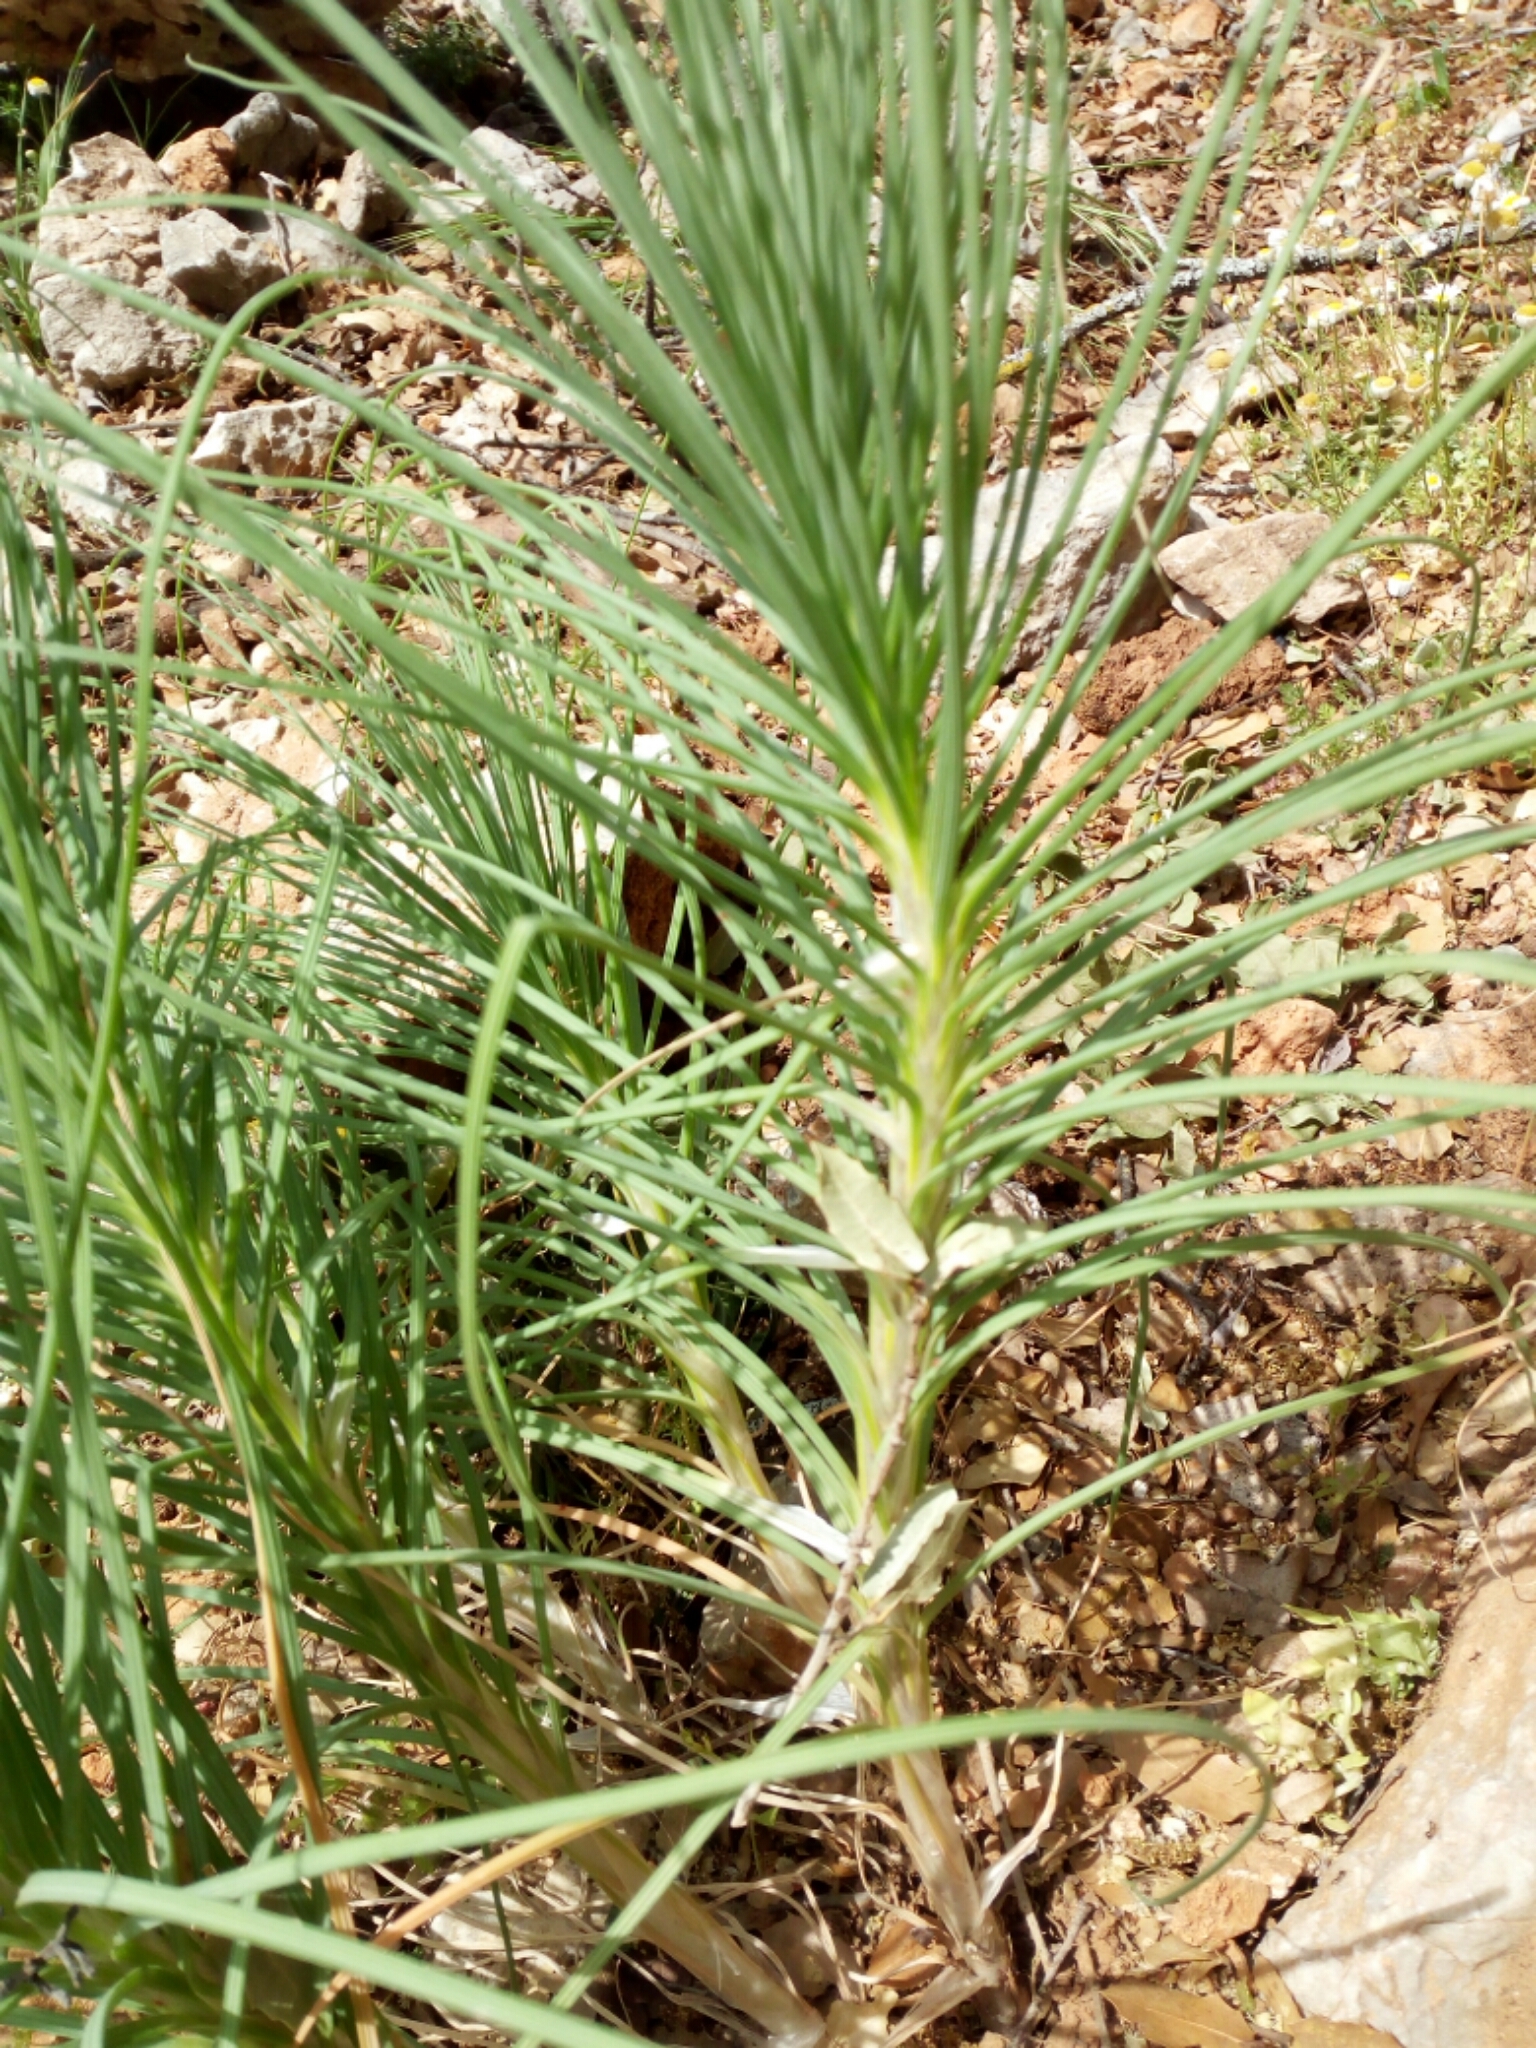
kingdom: Plantae
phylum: Tracheophyta
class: Liliopsida
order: Asparagales
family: Asphodelaceae
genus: Asphodeline
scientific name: Asphodeline liburnica
